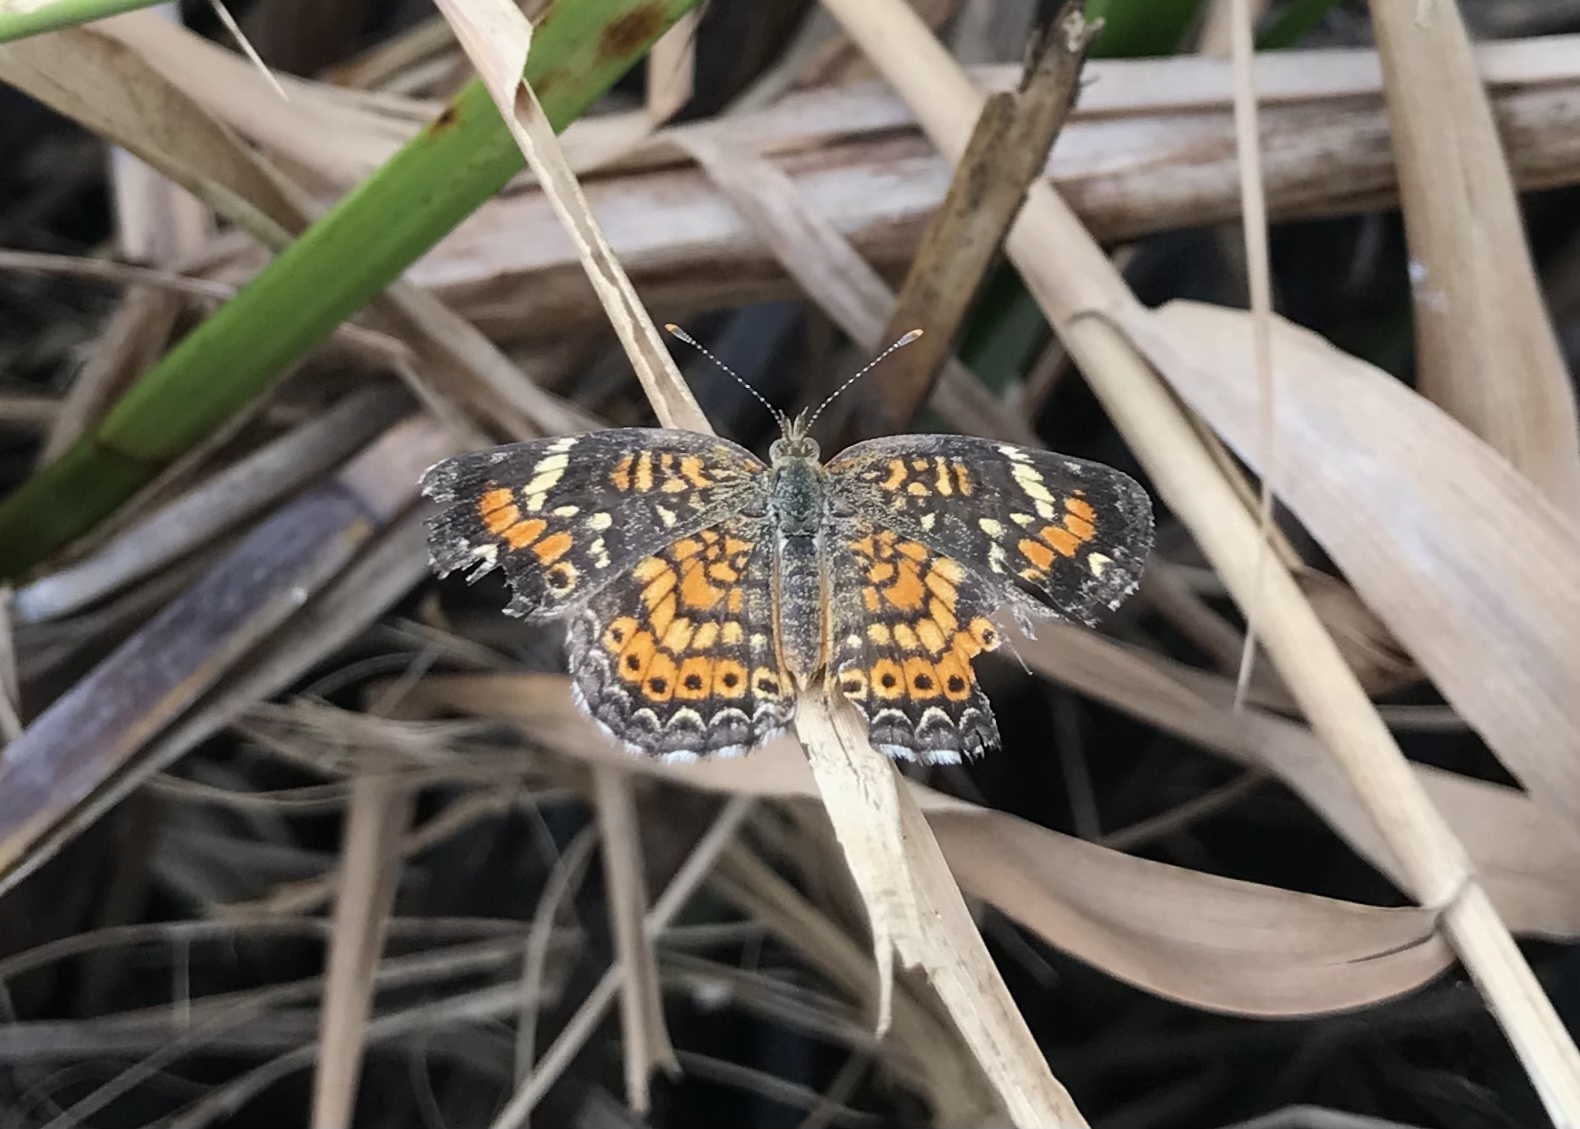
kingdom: Animalia
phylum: Arthropoda
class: Insecta
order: Lepidoptera
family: Nymphalidae
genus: Phyciodes
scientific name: Phyciodes phaon
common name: Phaon crescent
